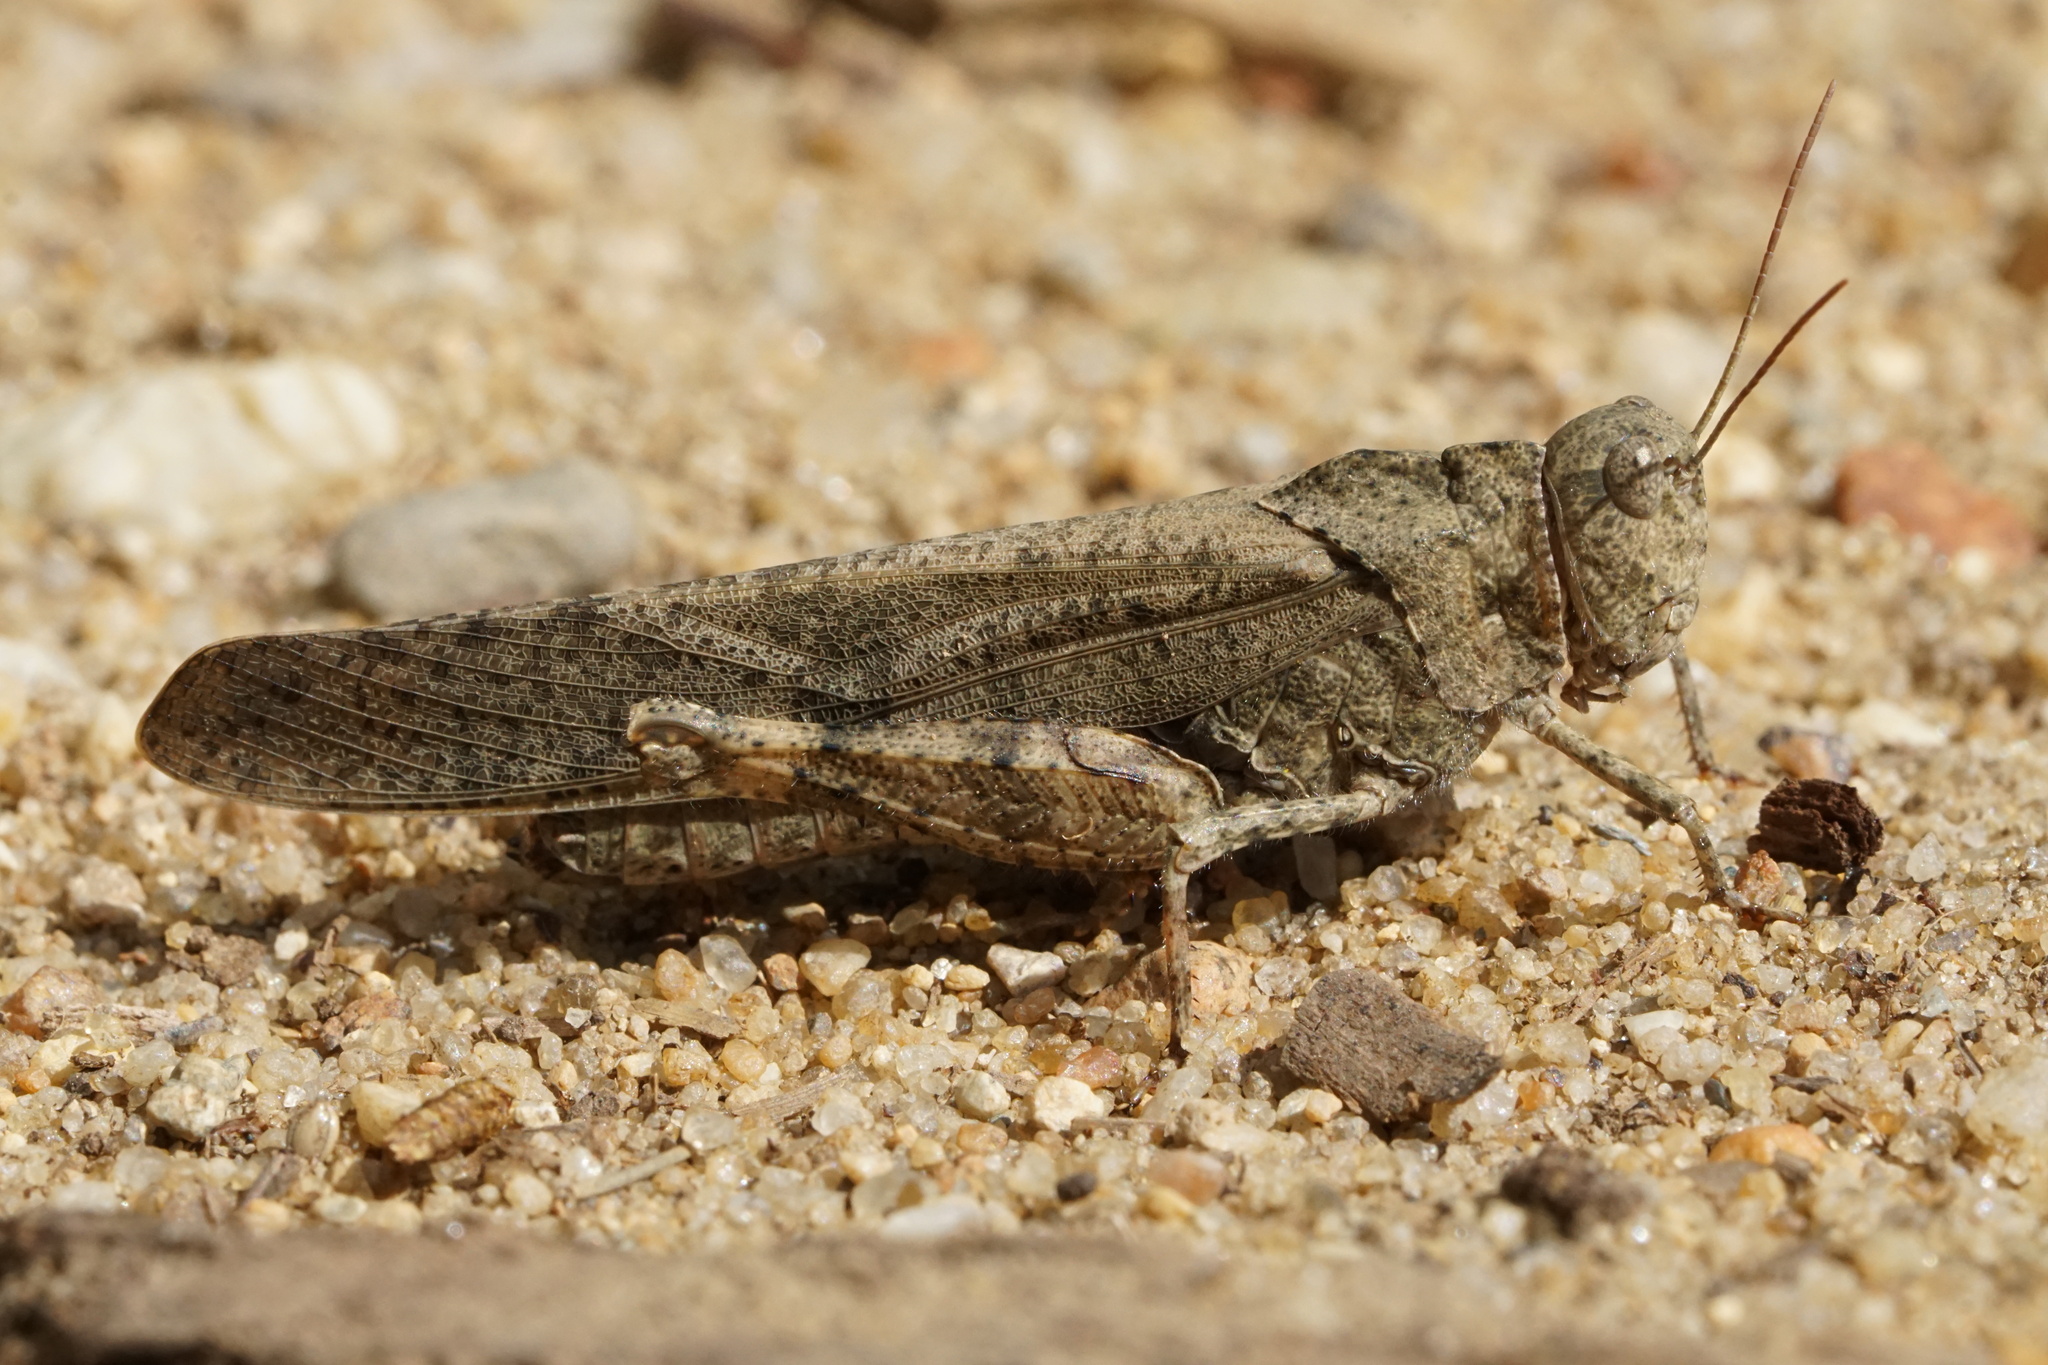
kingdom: Animalia
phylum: Arthropoda
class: Insecta
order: Orthoptera
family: Acrididae
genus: Dissosteira
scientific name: Dissosteira carolina
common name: Carolina grasshopper
